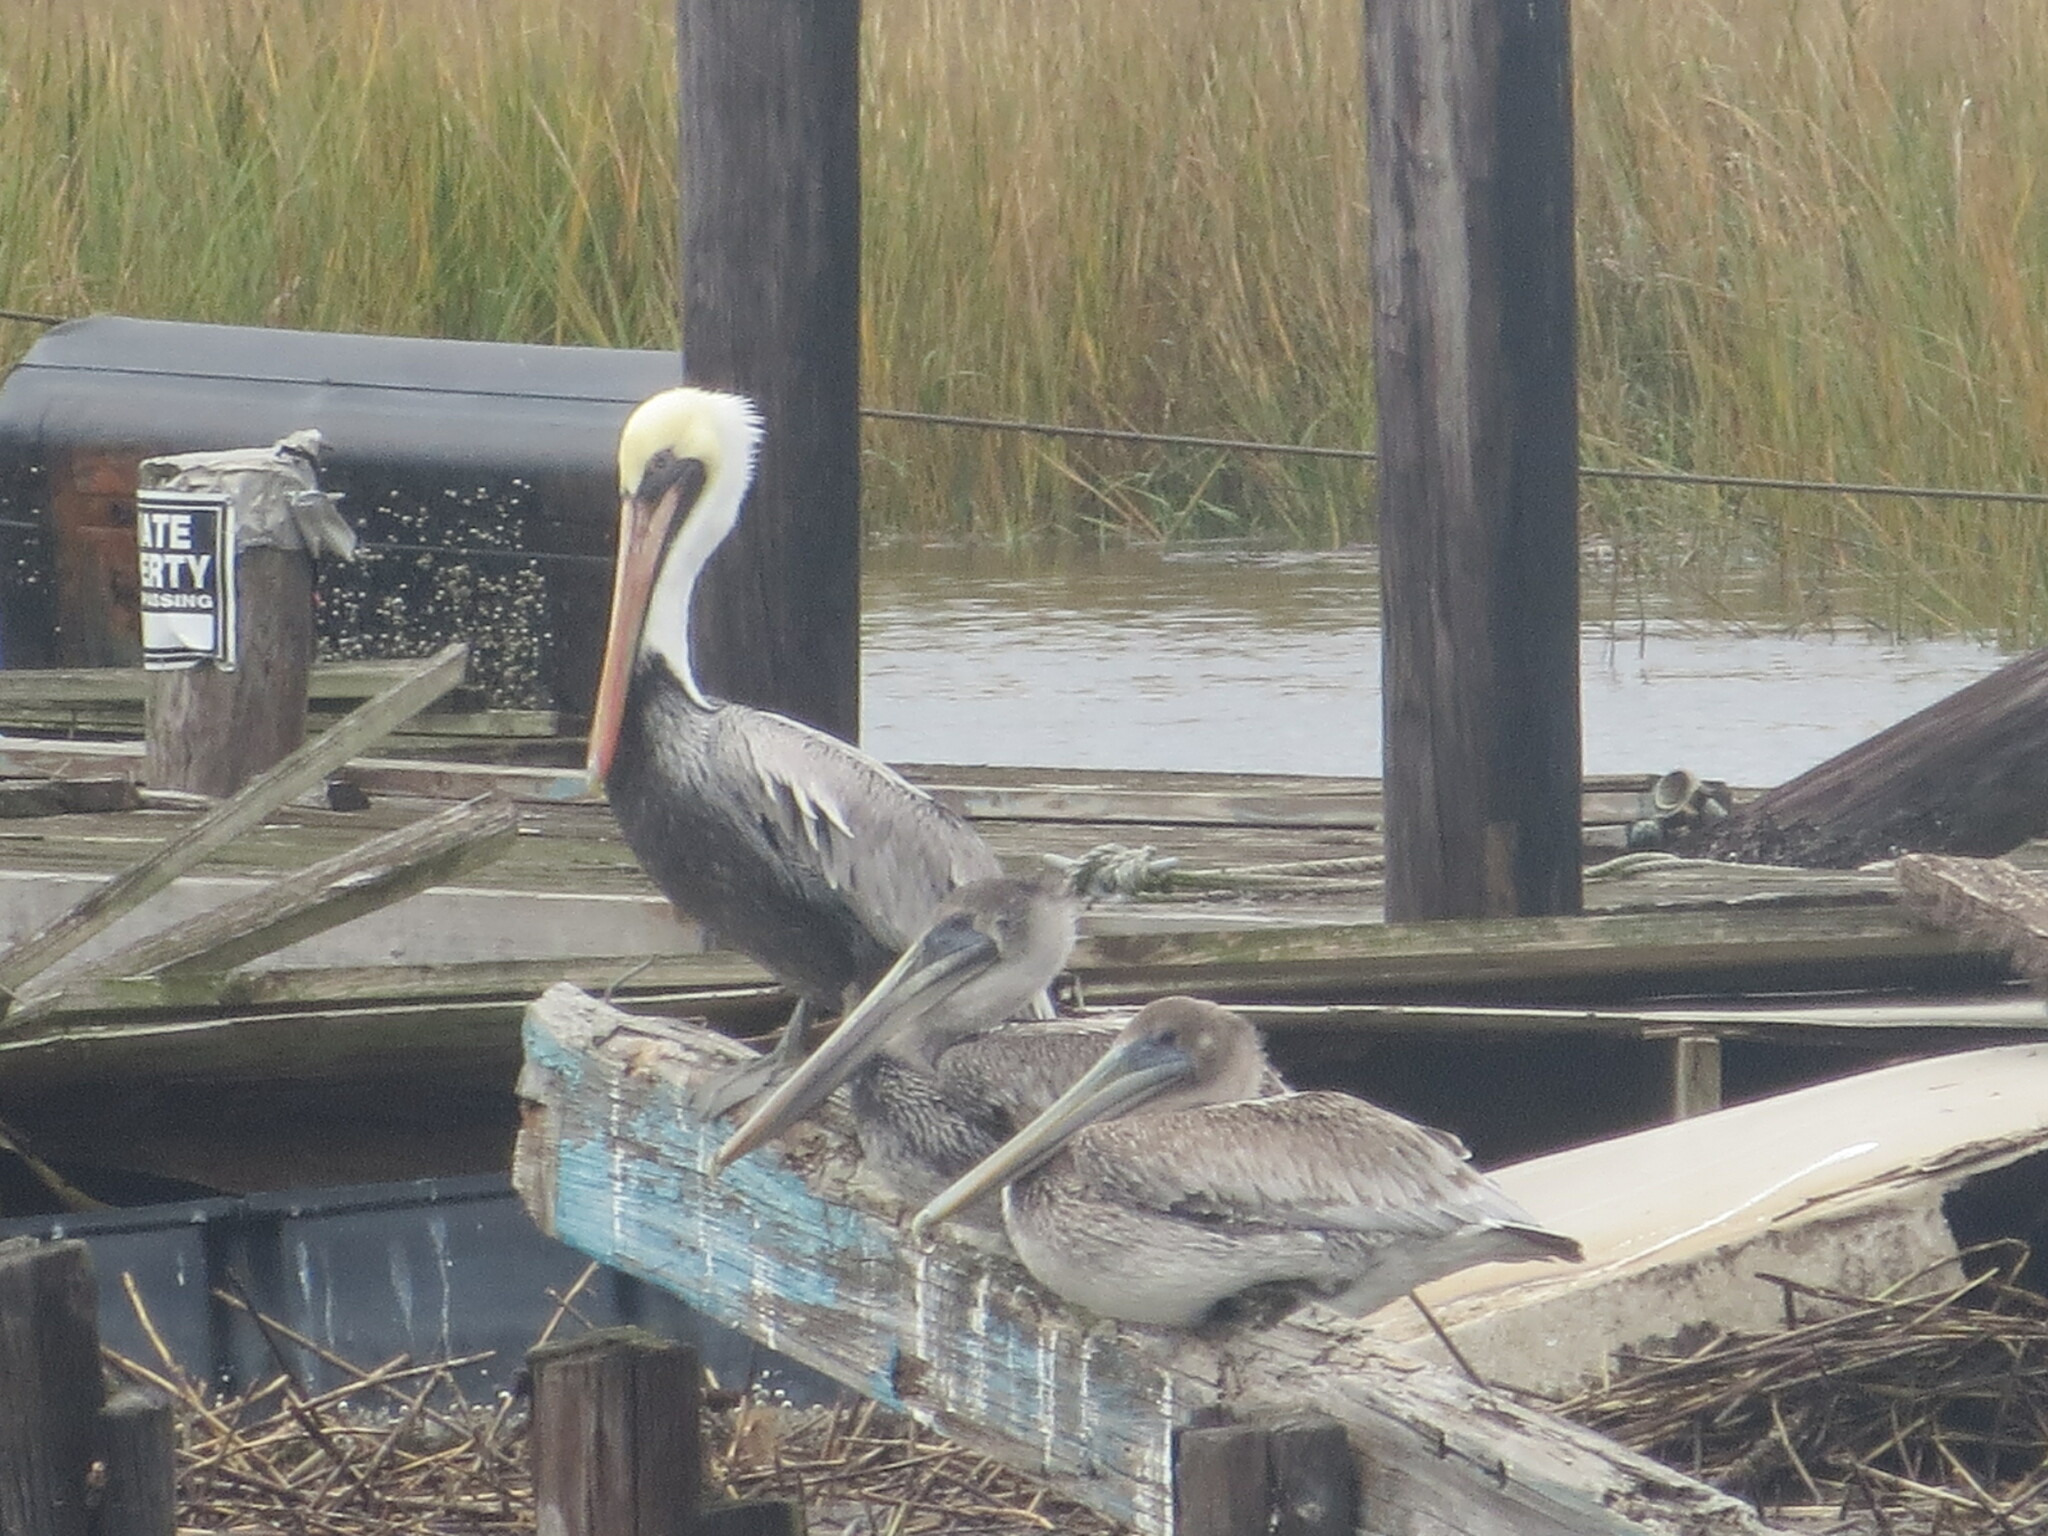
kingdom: Animalia
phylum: Chordata
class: Aves
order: Pelecaniformes
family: Pelecanidae
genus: Pelecanus
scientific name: Pelecanus occidentalis
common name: Brown pelican
